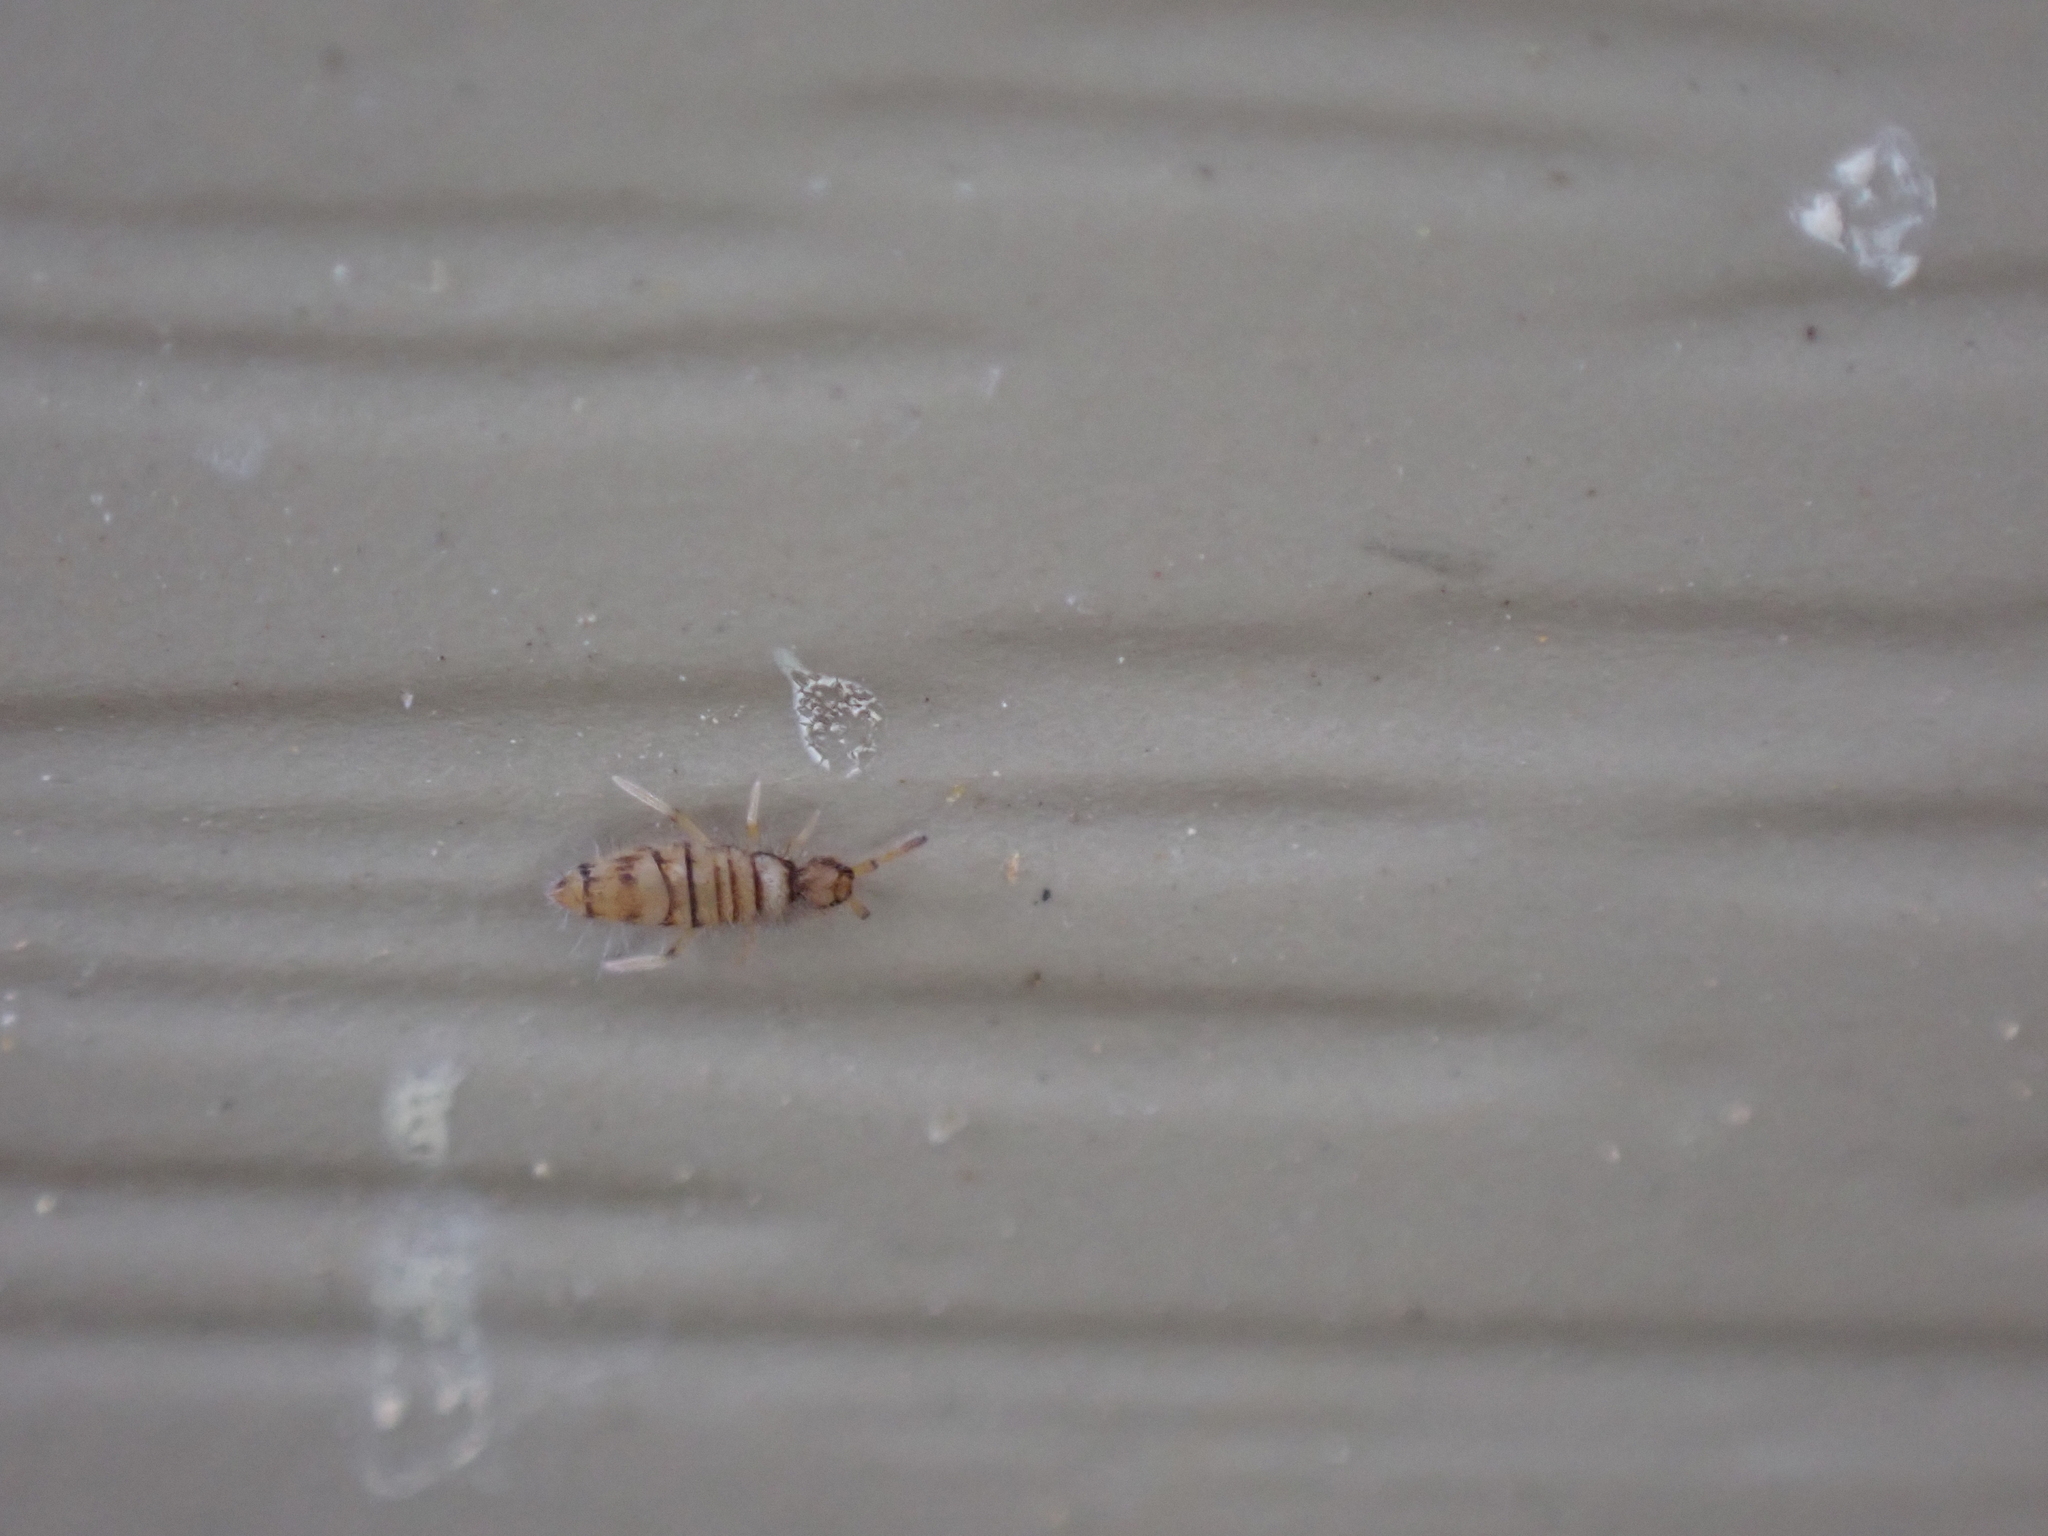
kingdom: Animalia
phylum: Arthropoda
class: Collembola
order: Entomobryomorpha
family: Entomobryidae
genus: Entomobrya
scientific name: Entomobrya atrocincta
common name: Springtail
